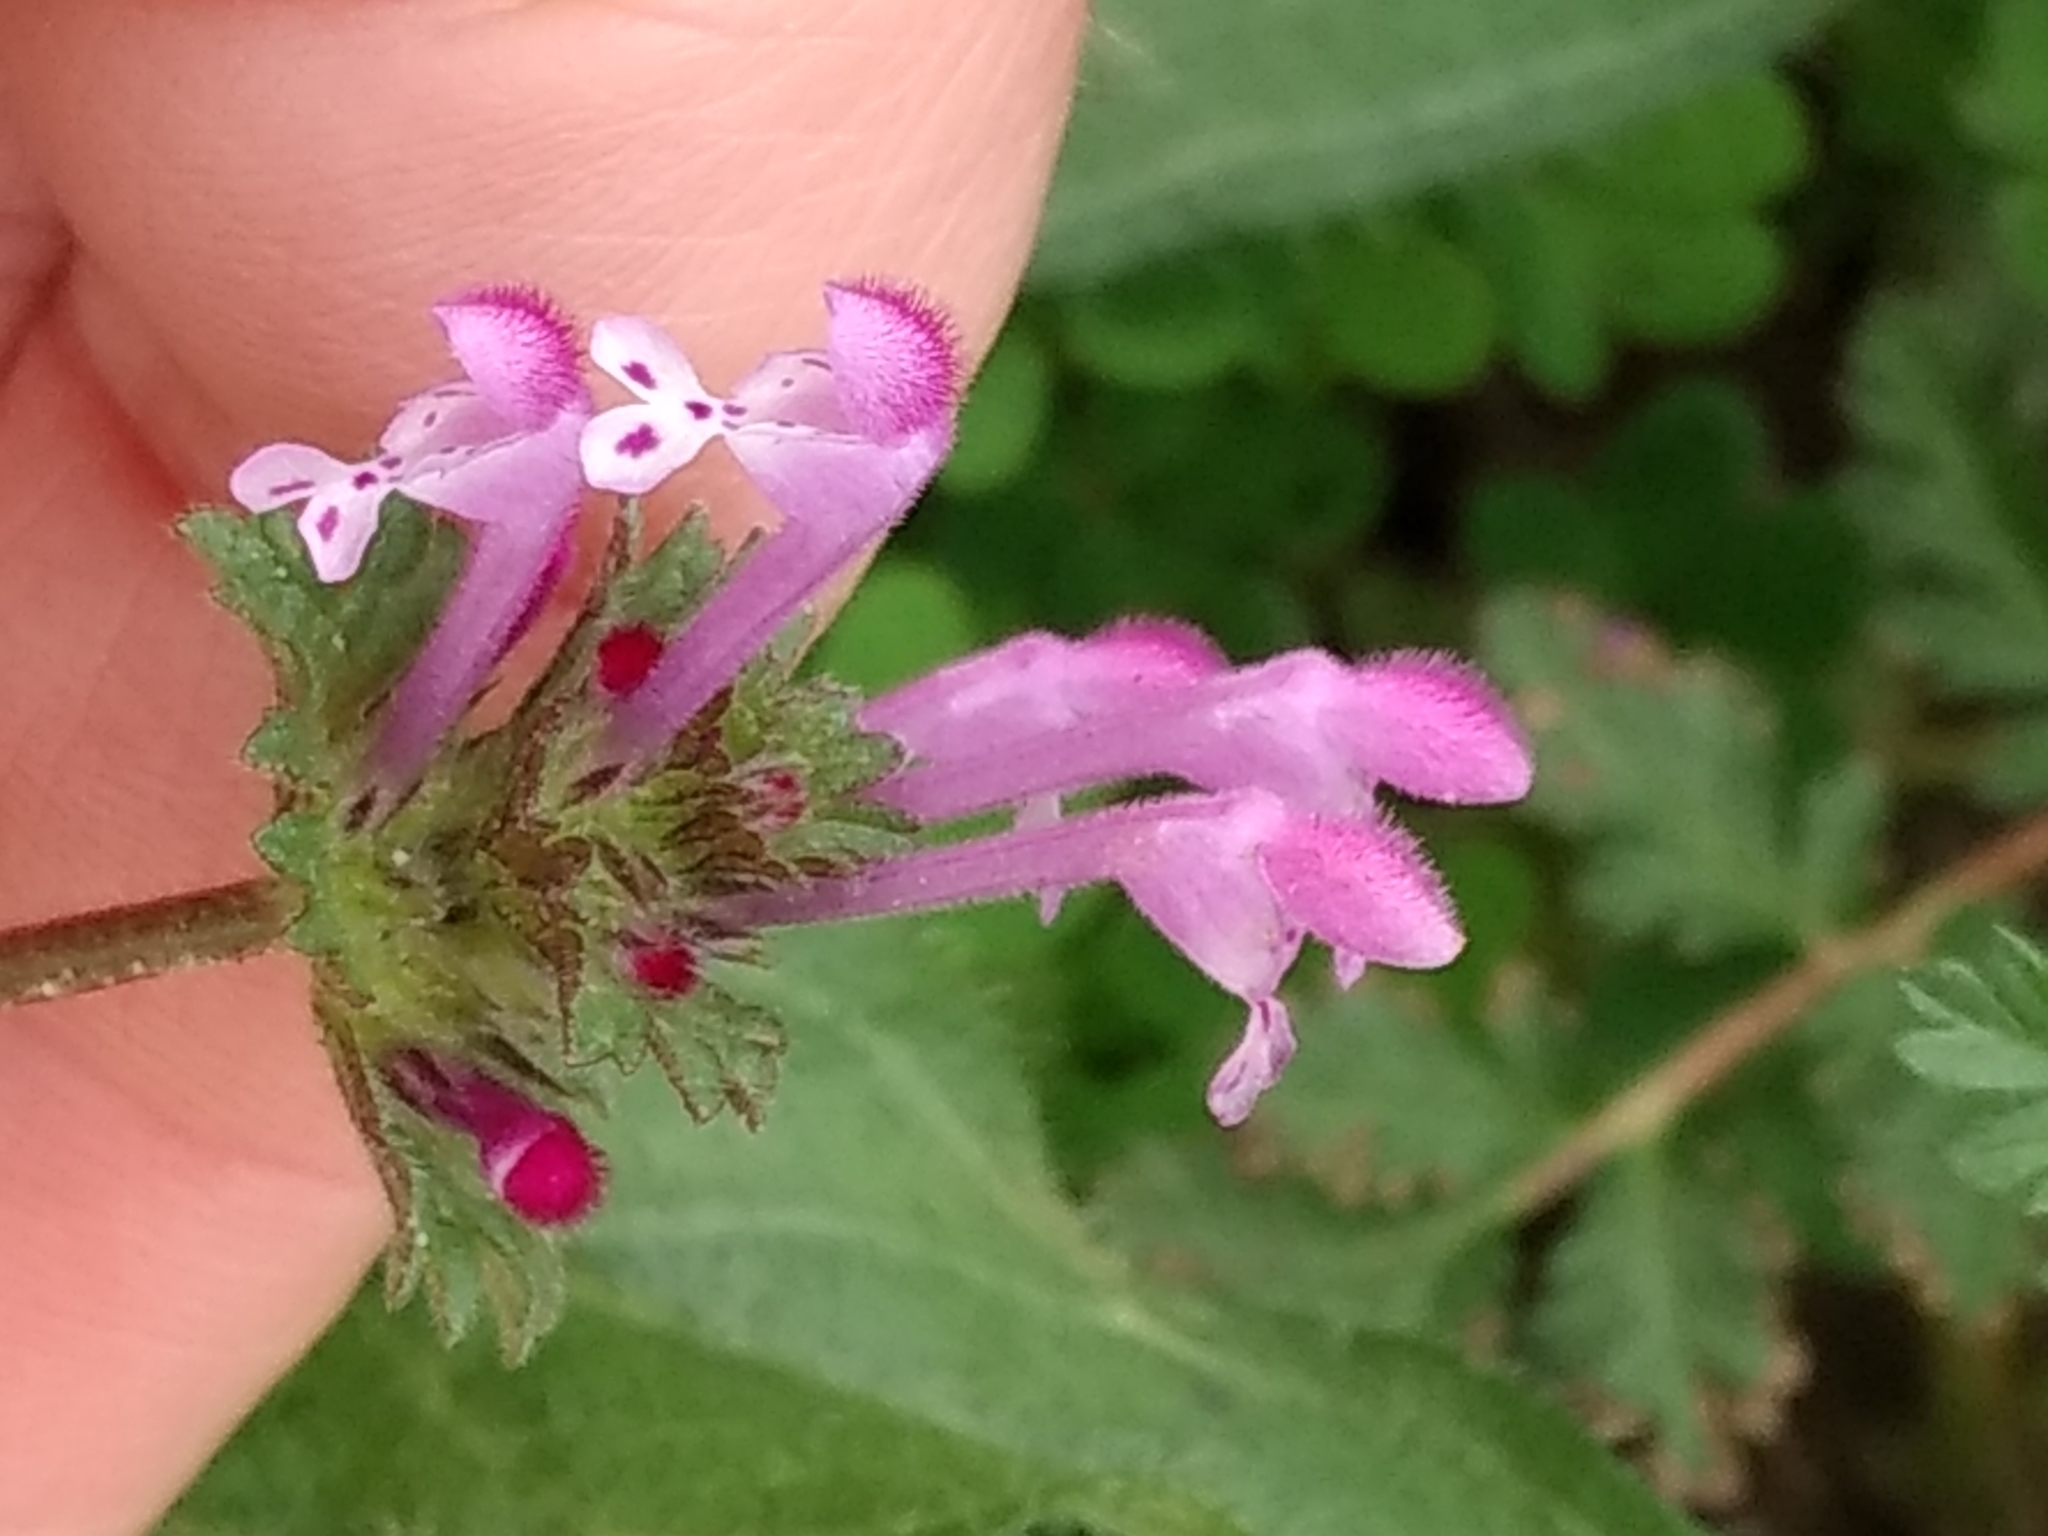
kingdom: Plantae
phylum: Tracheophyta
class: Magnoliopsida
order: Lamiales
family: Lamiaceae
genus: Lamium
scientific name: Lamium amplexicaule
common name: Henbit dead-nettle
